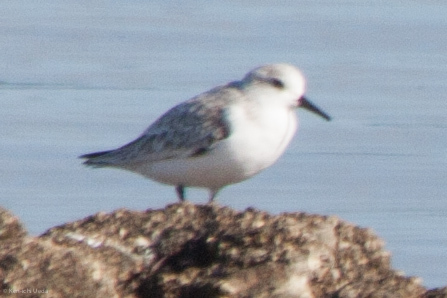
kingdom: Animalia
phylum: Chordata
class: Aves
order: Charadriiformes
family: Scolopacidae
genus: Calidris
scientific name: Calidris alba
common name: Sanderling
